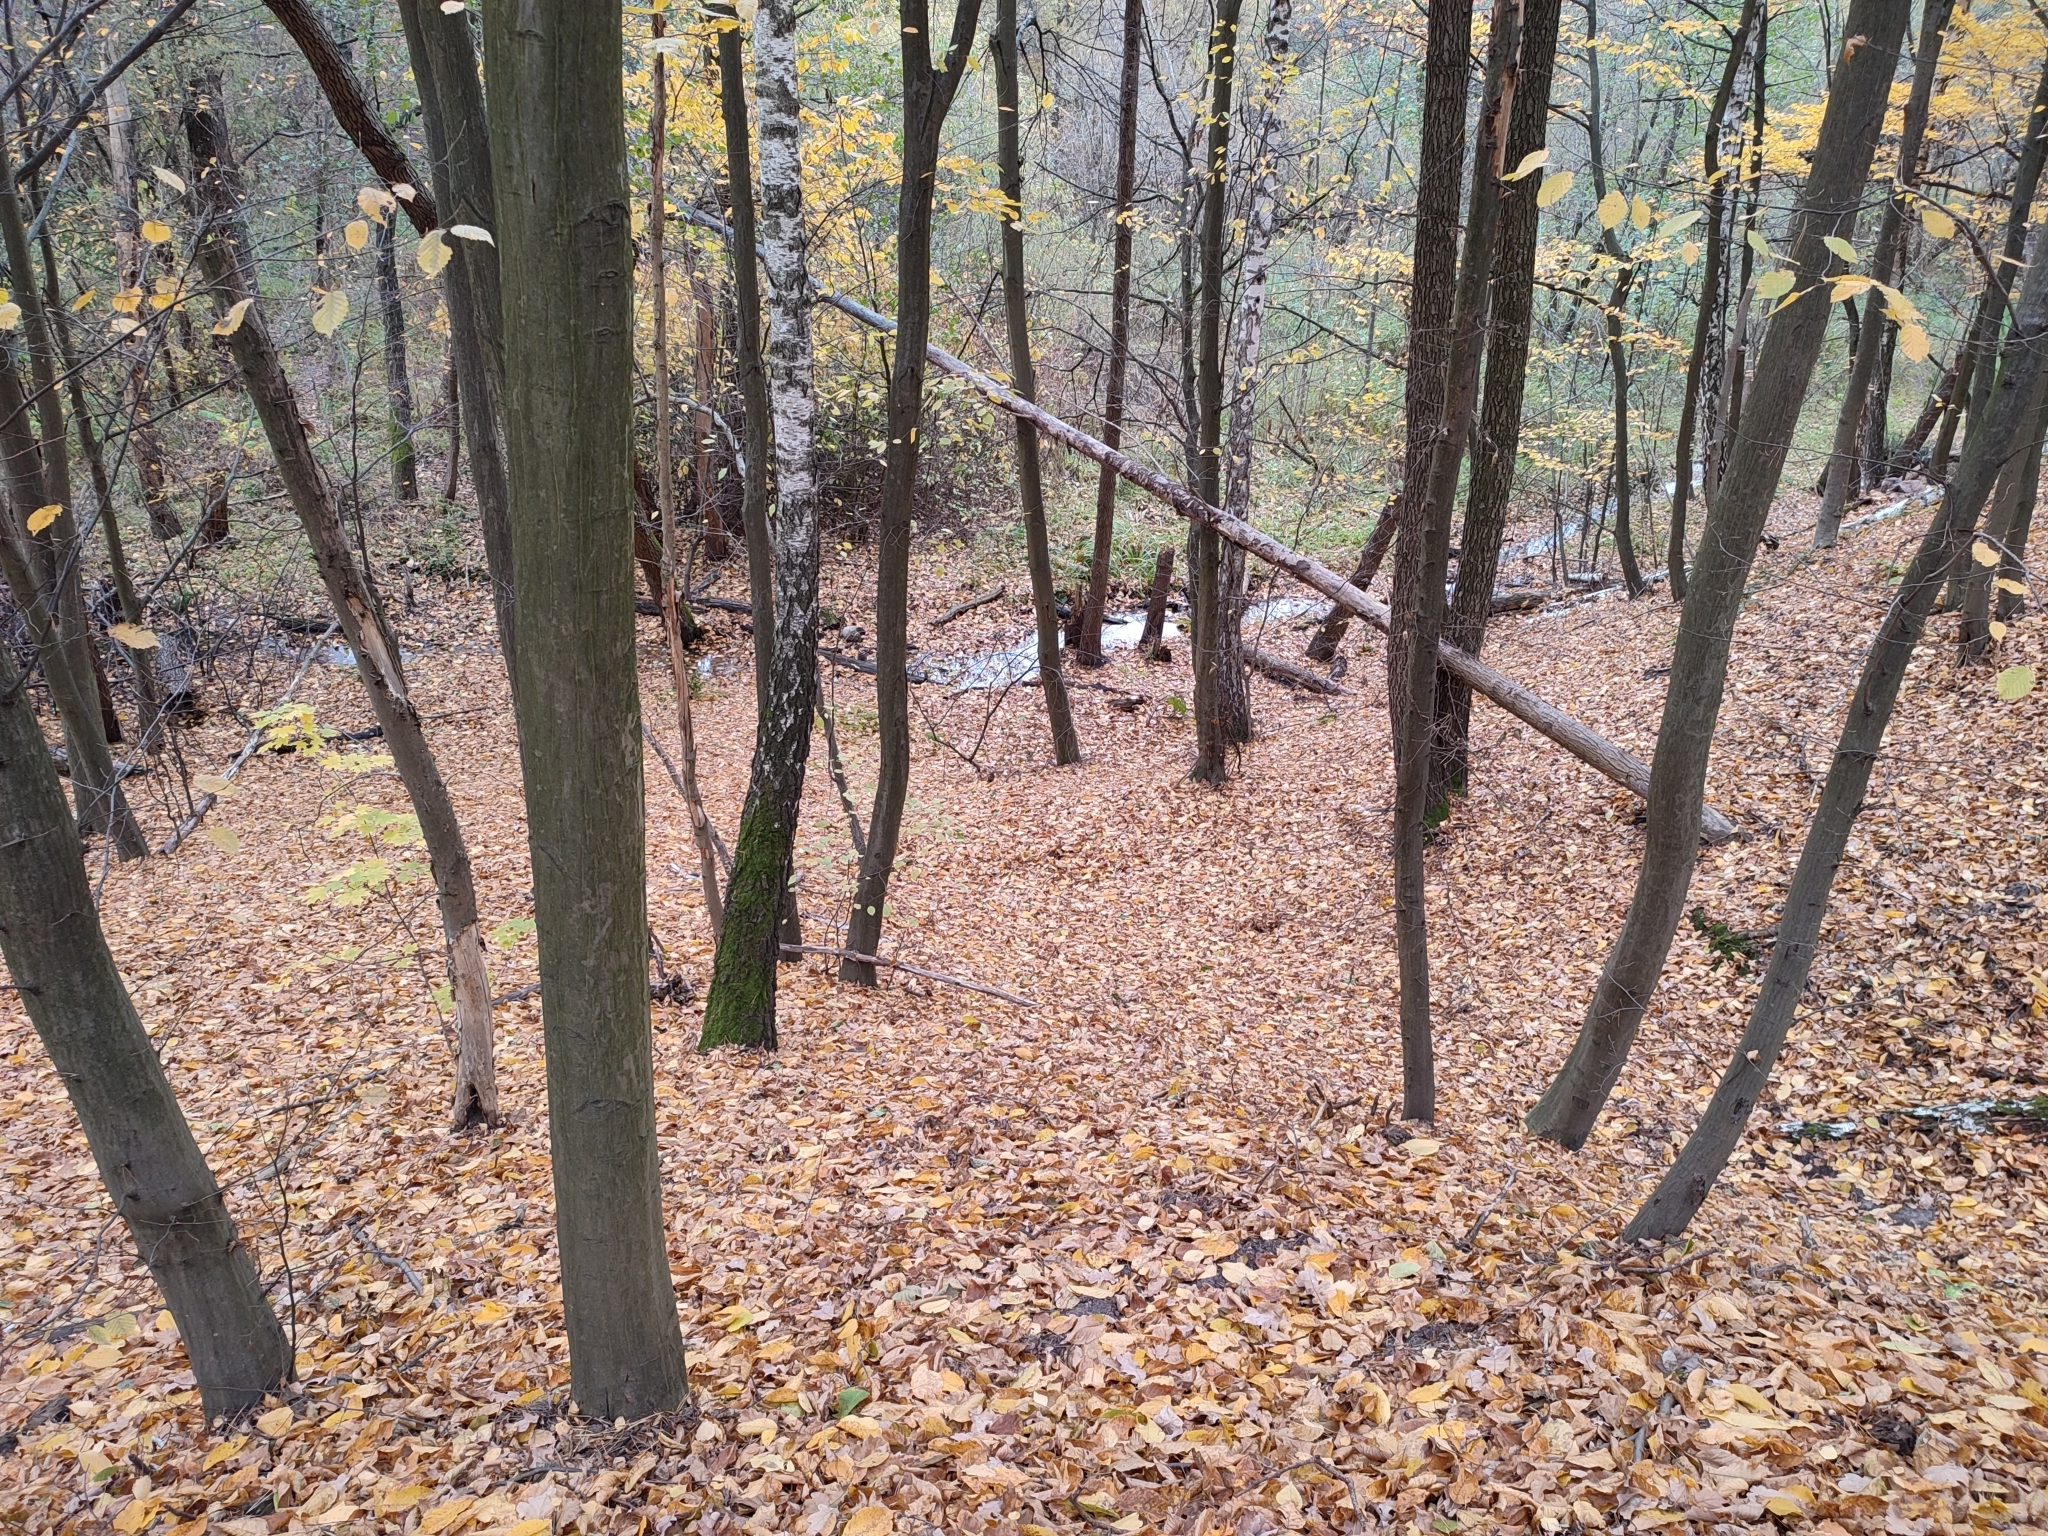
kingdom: Plantae
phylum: Tracheophyta
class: Magnoliopsida
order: Fagales
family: Betulaceae
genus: Carpinus
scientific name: Carpinus betulus
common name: Hornbeam
